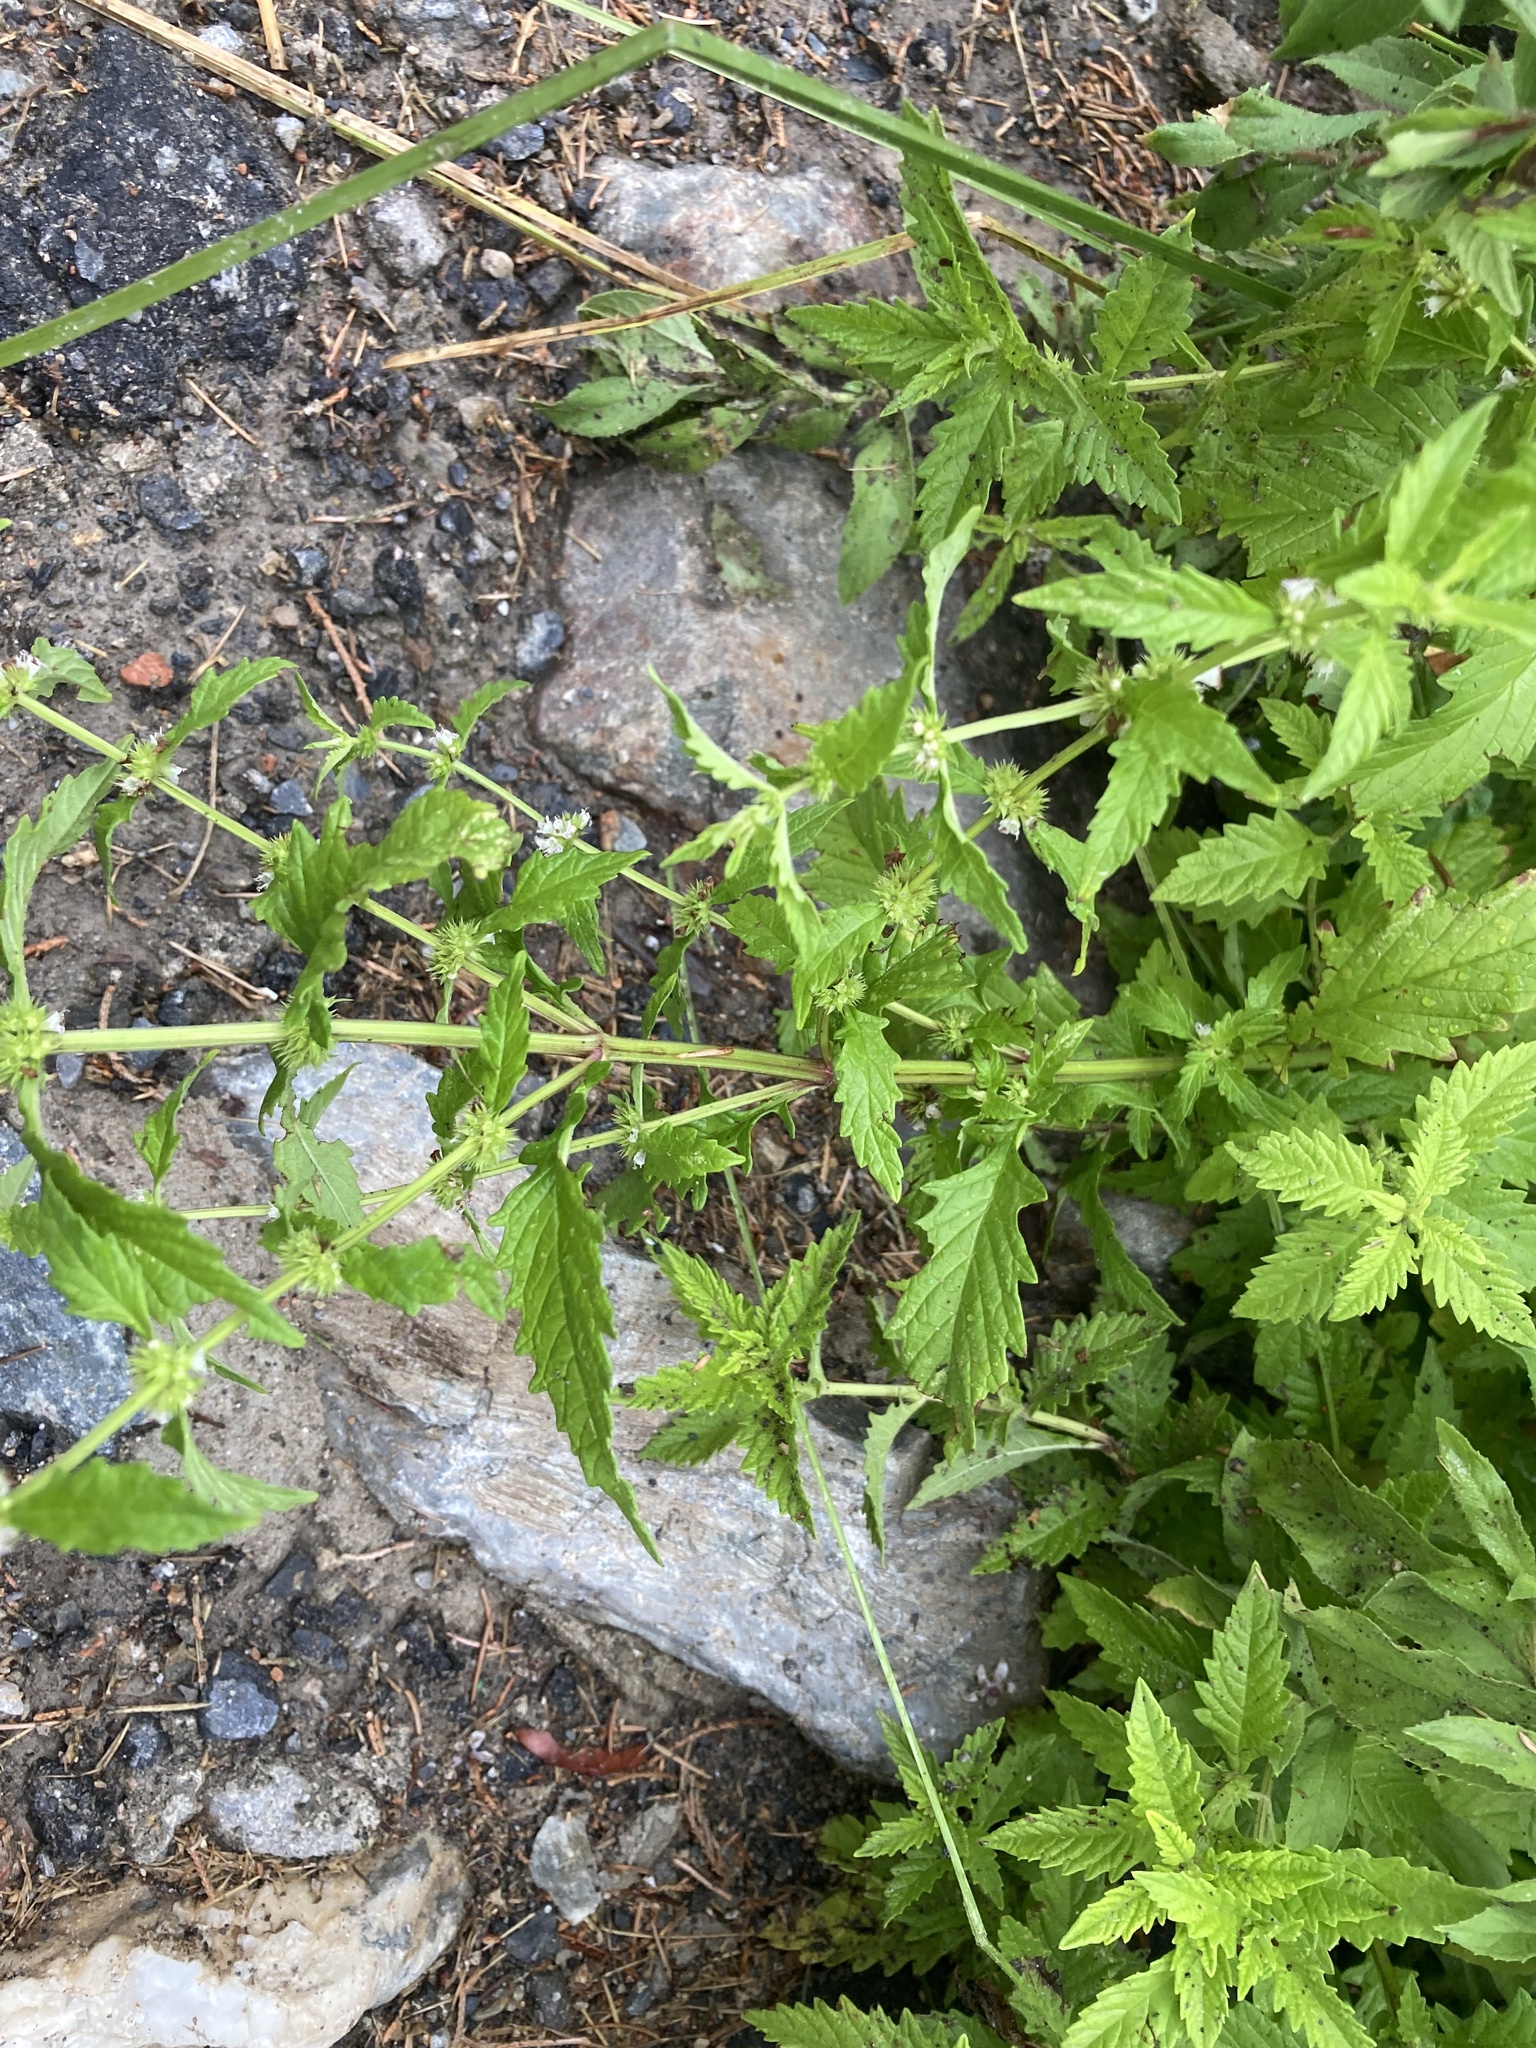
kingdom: Plantae
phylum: Tracheophyta
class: Magnoliopsida
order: Lamiales
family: Lamiaceae
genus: Lycopus
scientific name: Lycopus europaeus
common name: European bugleweed
